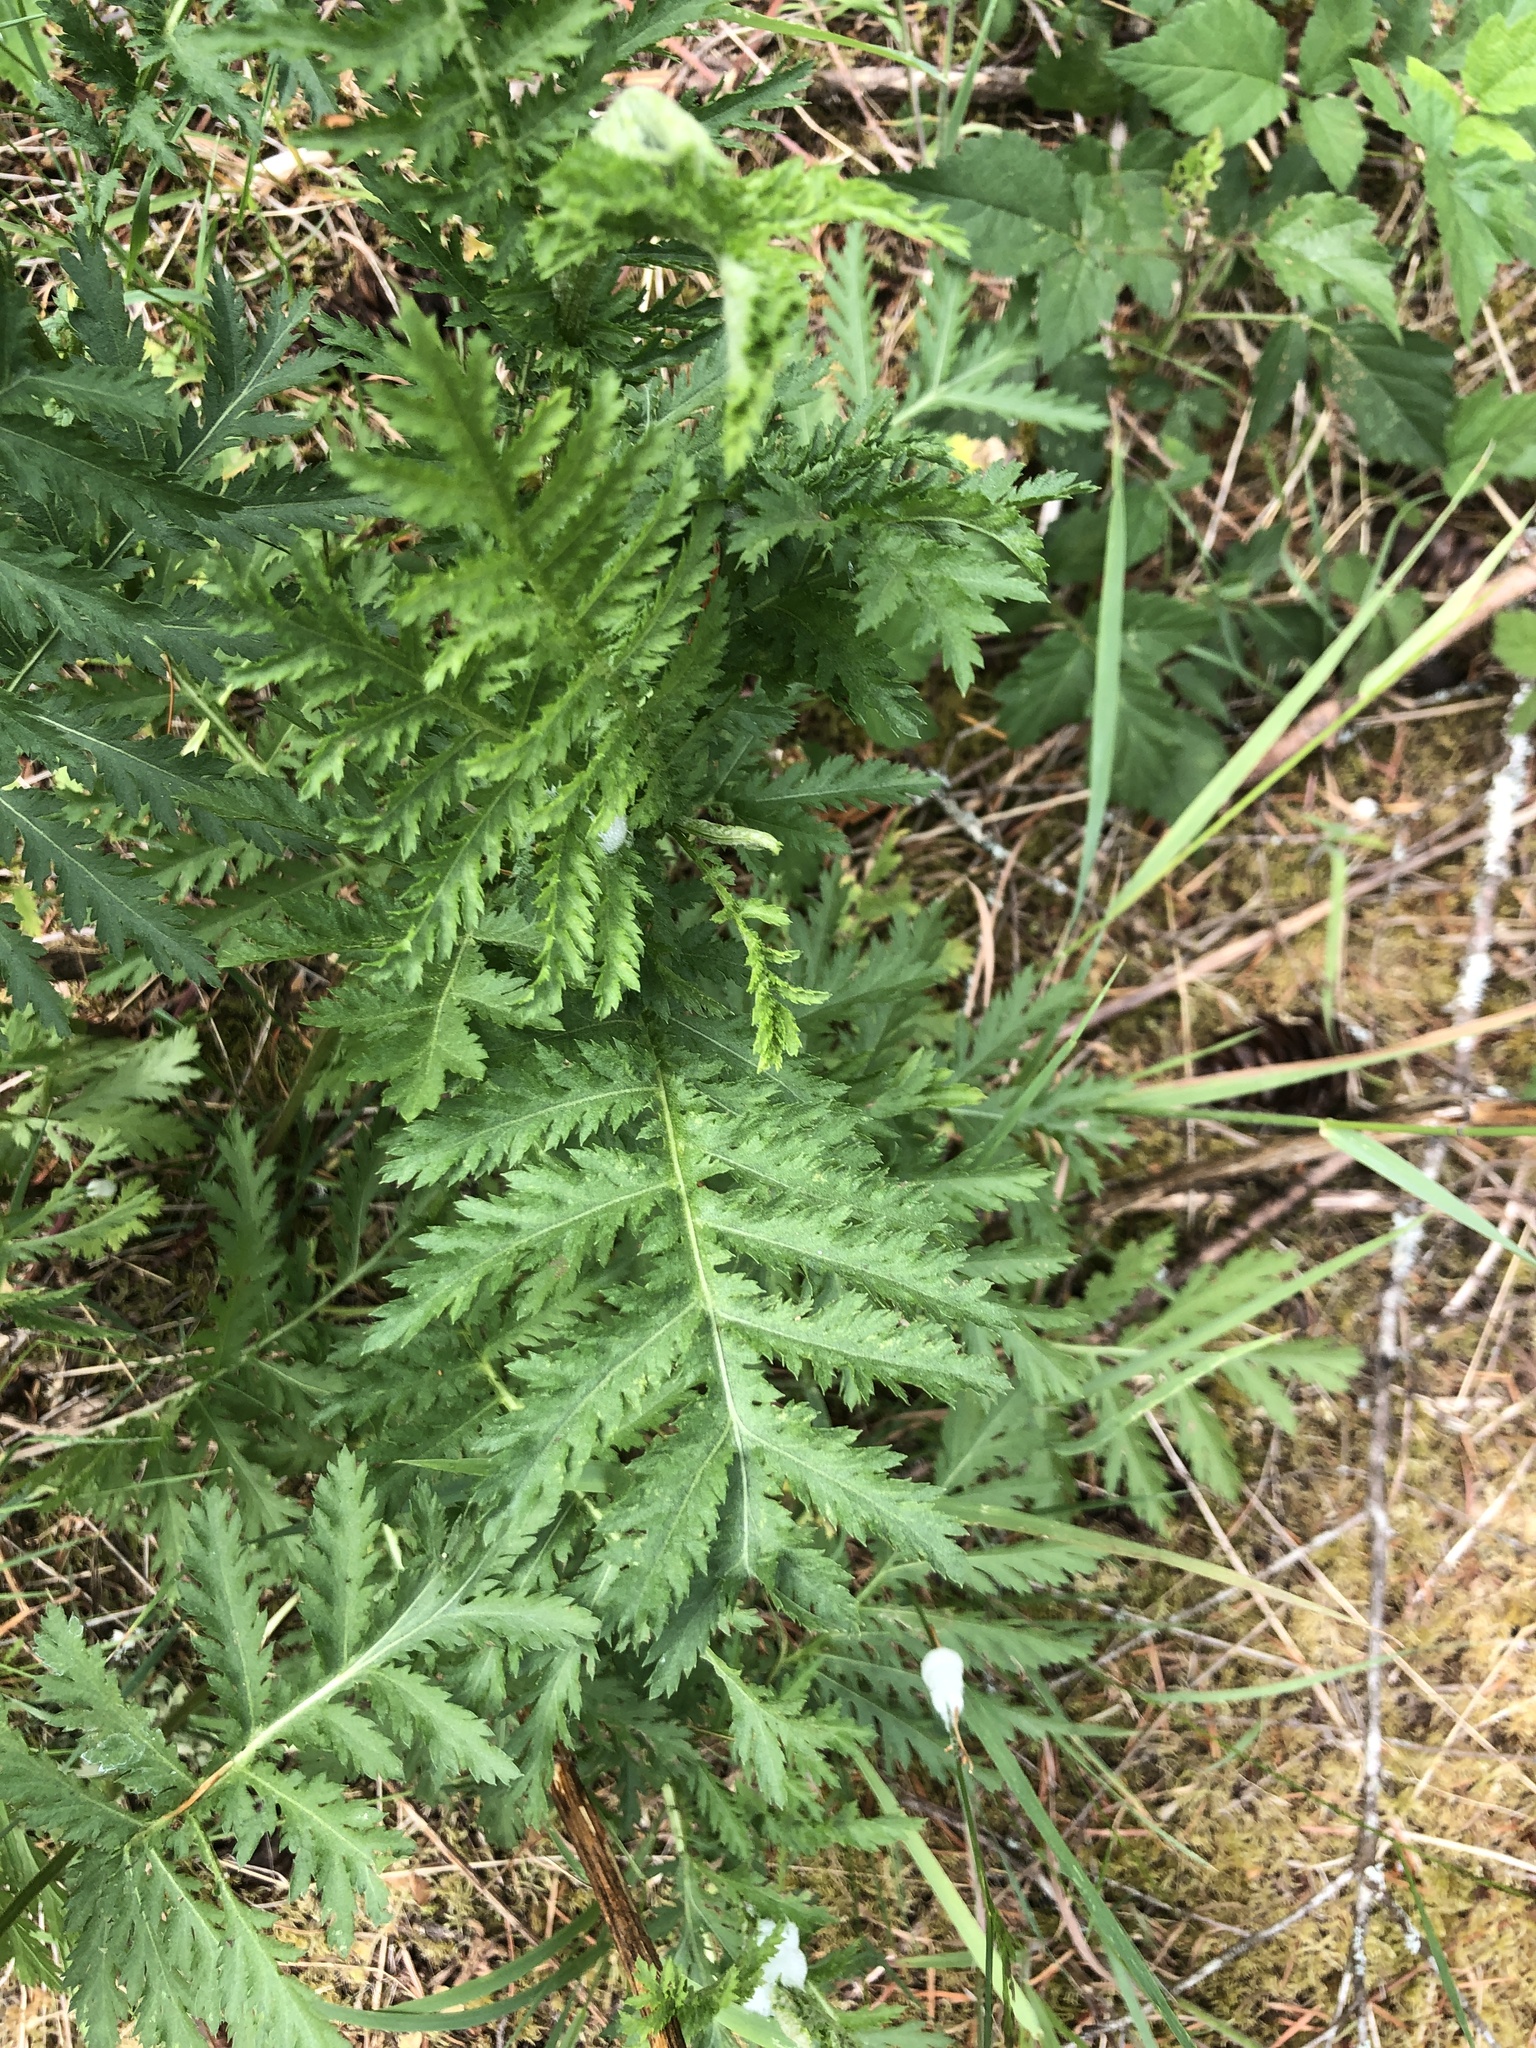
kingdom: Plantae
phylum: Tracheophyta
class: Magnoliopsida
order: Asterales
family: Asteraceae
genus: Tanacetum
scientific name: Tanacetum vulgare
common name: Common tansy
